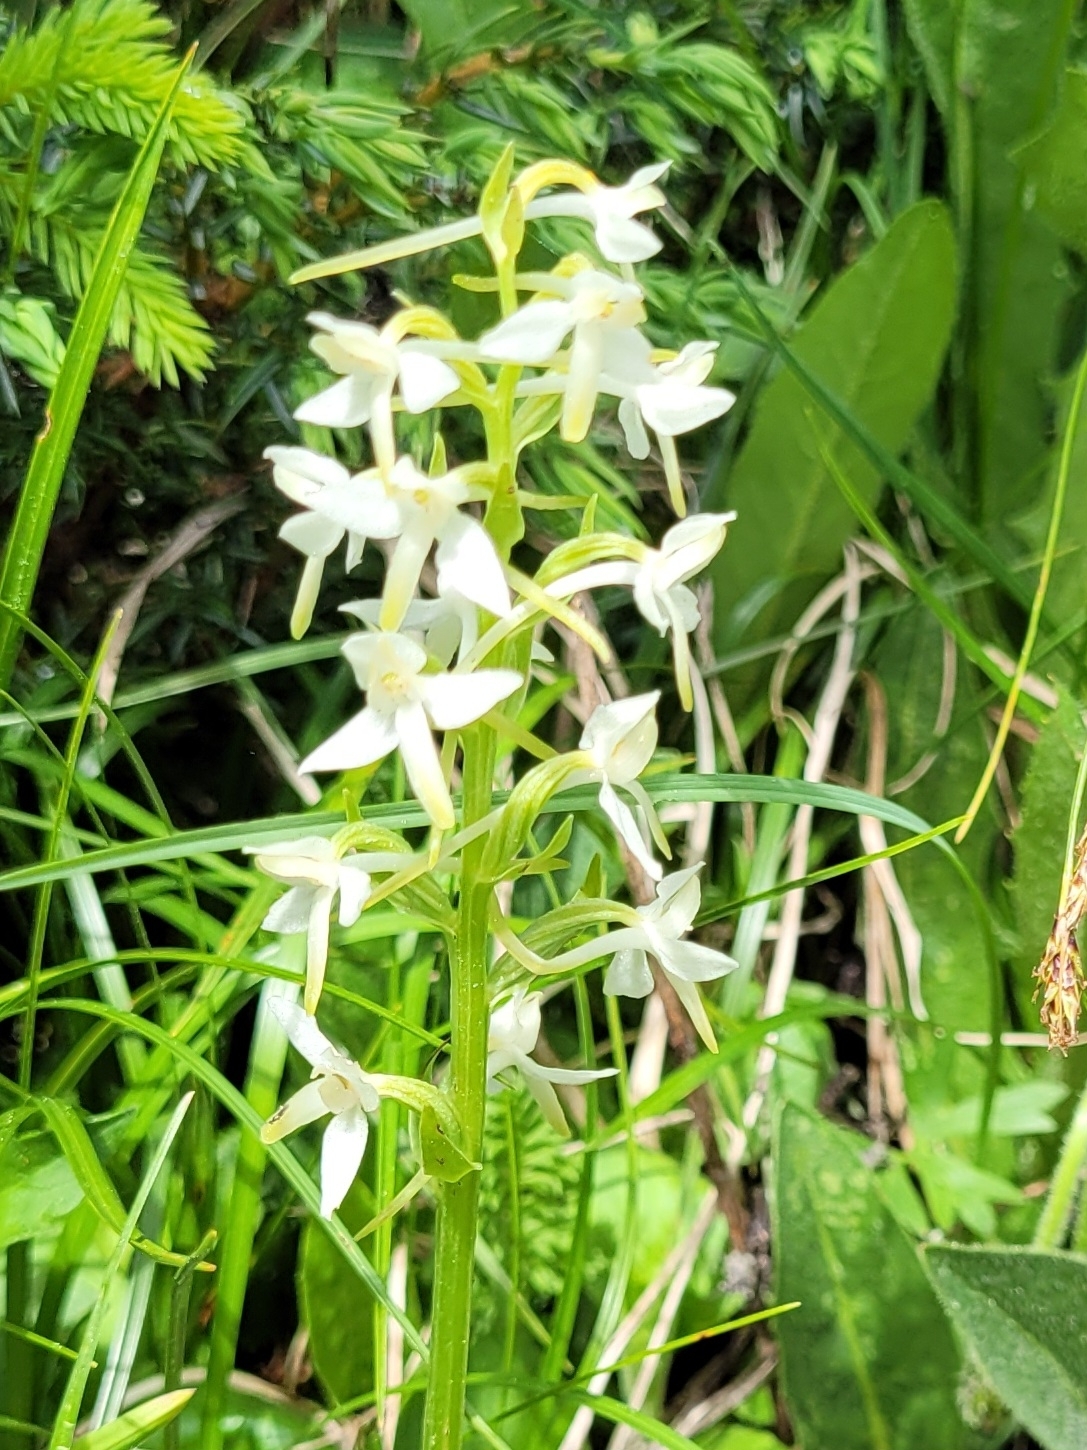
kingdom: Plantae
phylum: Tracheophyta
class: Liliopsida
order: Asparagales
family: Orchidaceae
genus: Platanthera
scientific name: Platanthera bifolia
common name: Lesser butterfly-orchid
